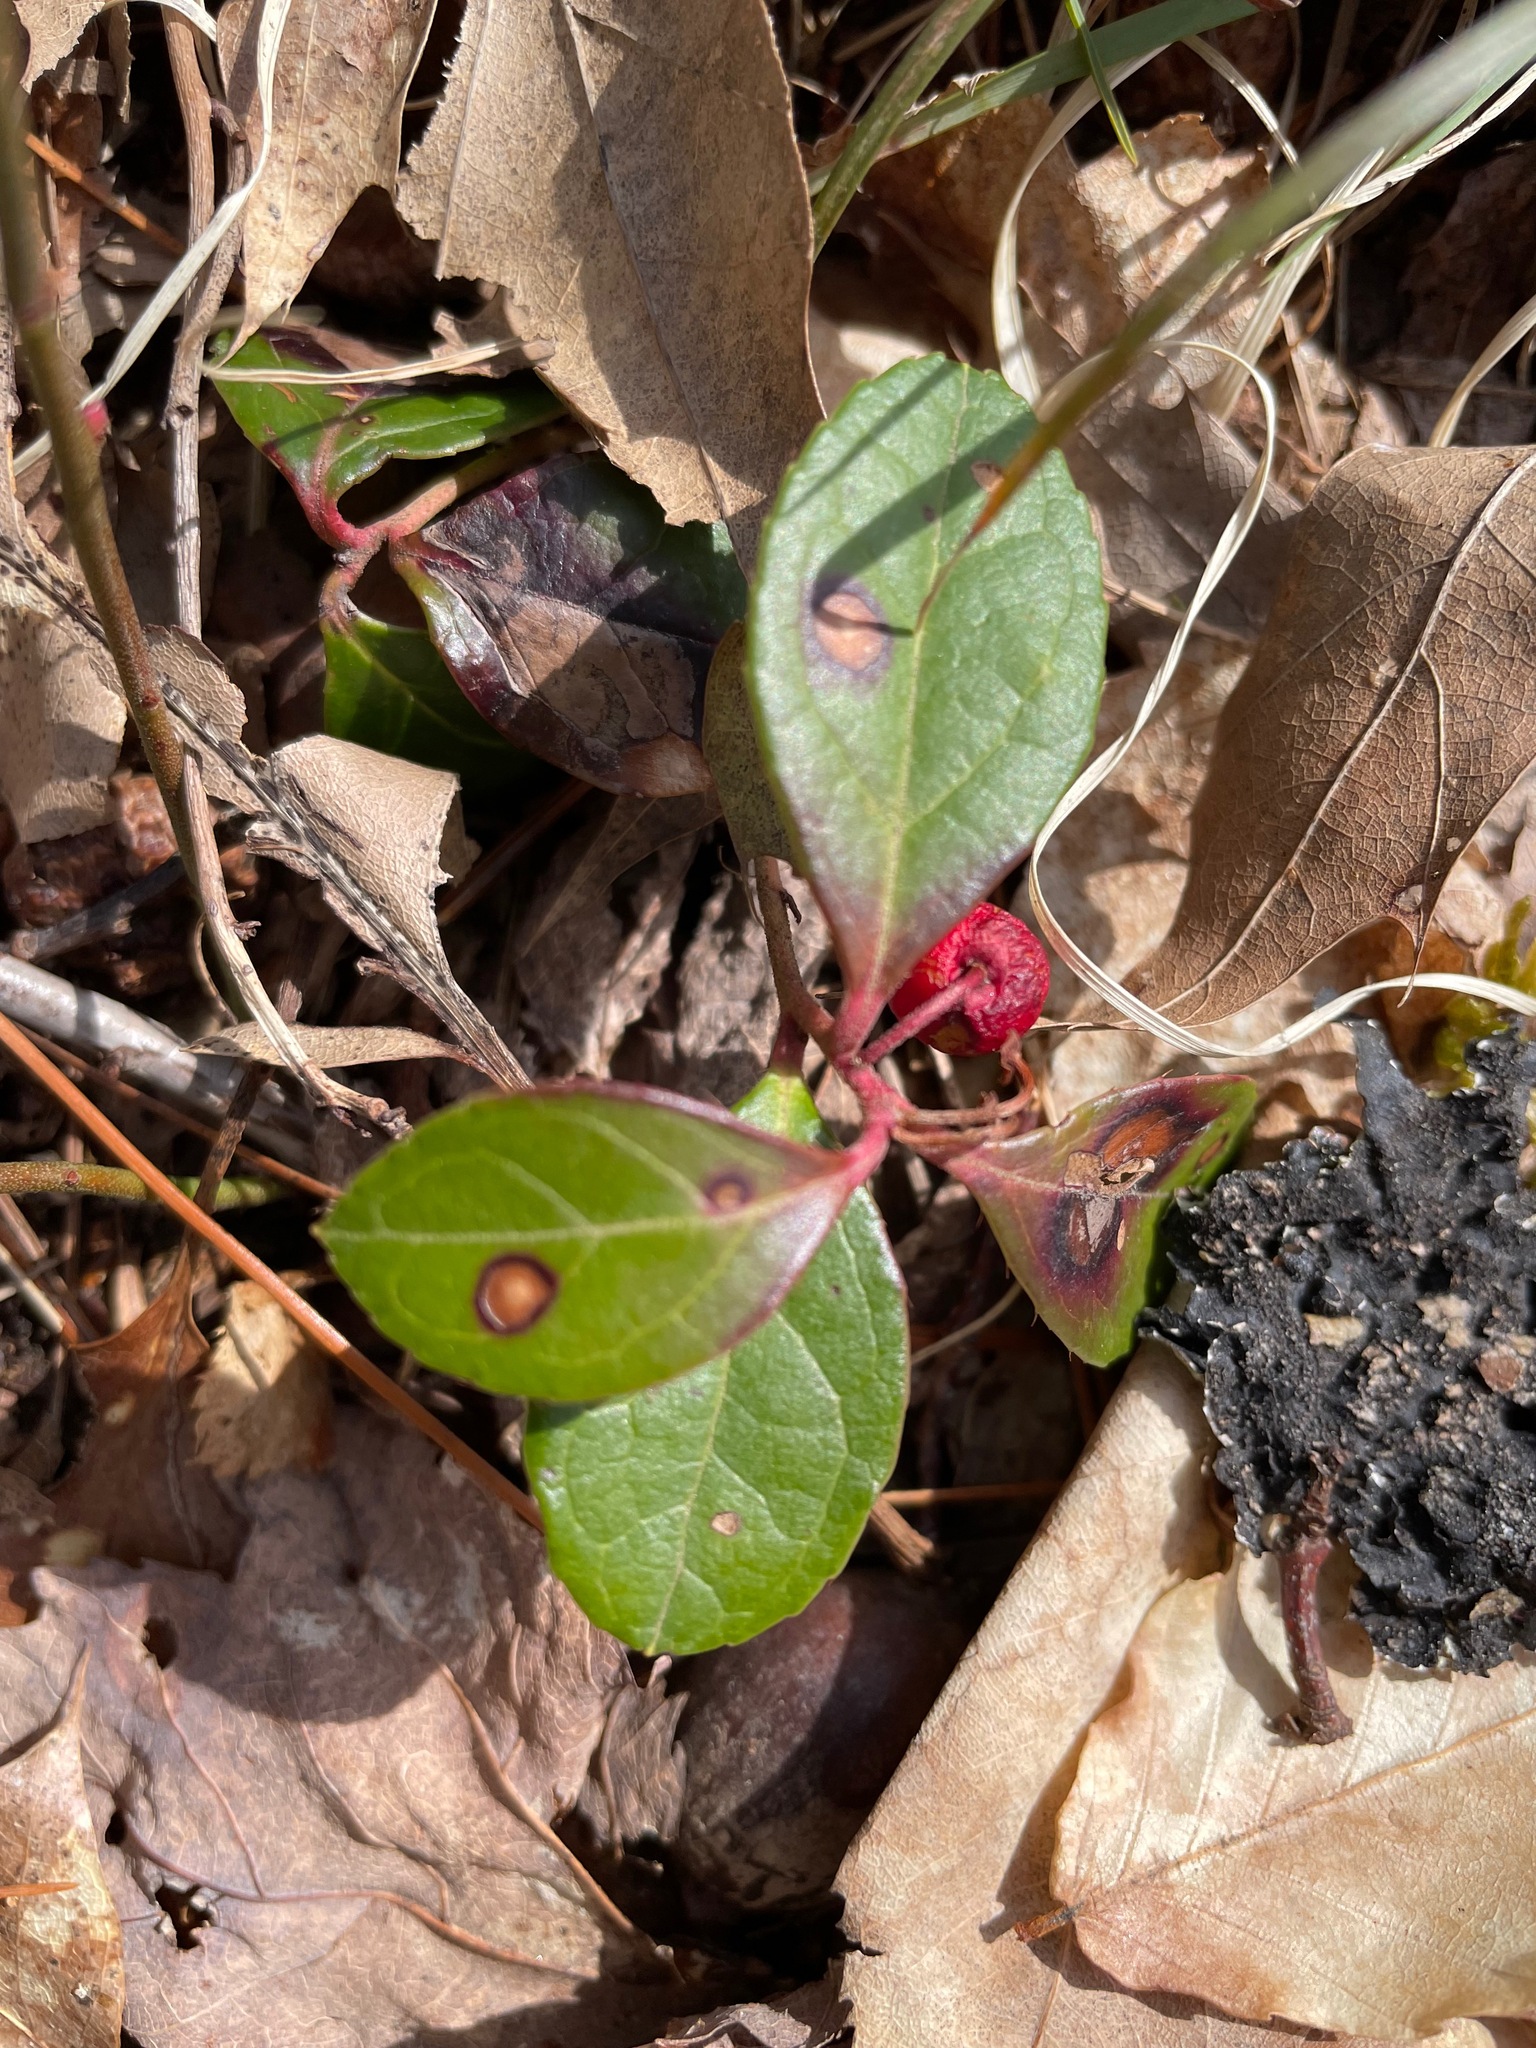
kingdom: Plantae
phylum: Tracheophyta
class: Magnoliopsida
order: Ericales
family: Ericaceae
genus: Gaultheria
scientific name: Gaultheria procumbens
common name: Checkerberry
